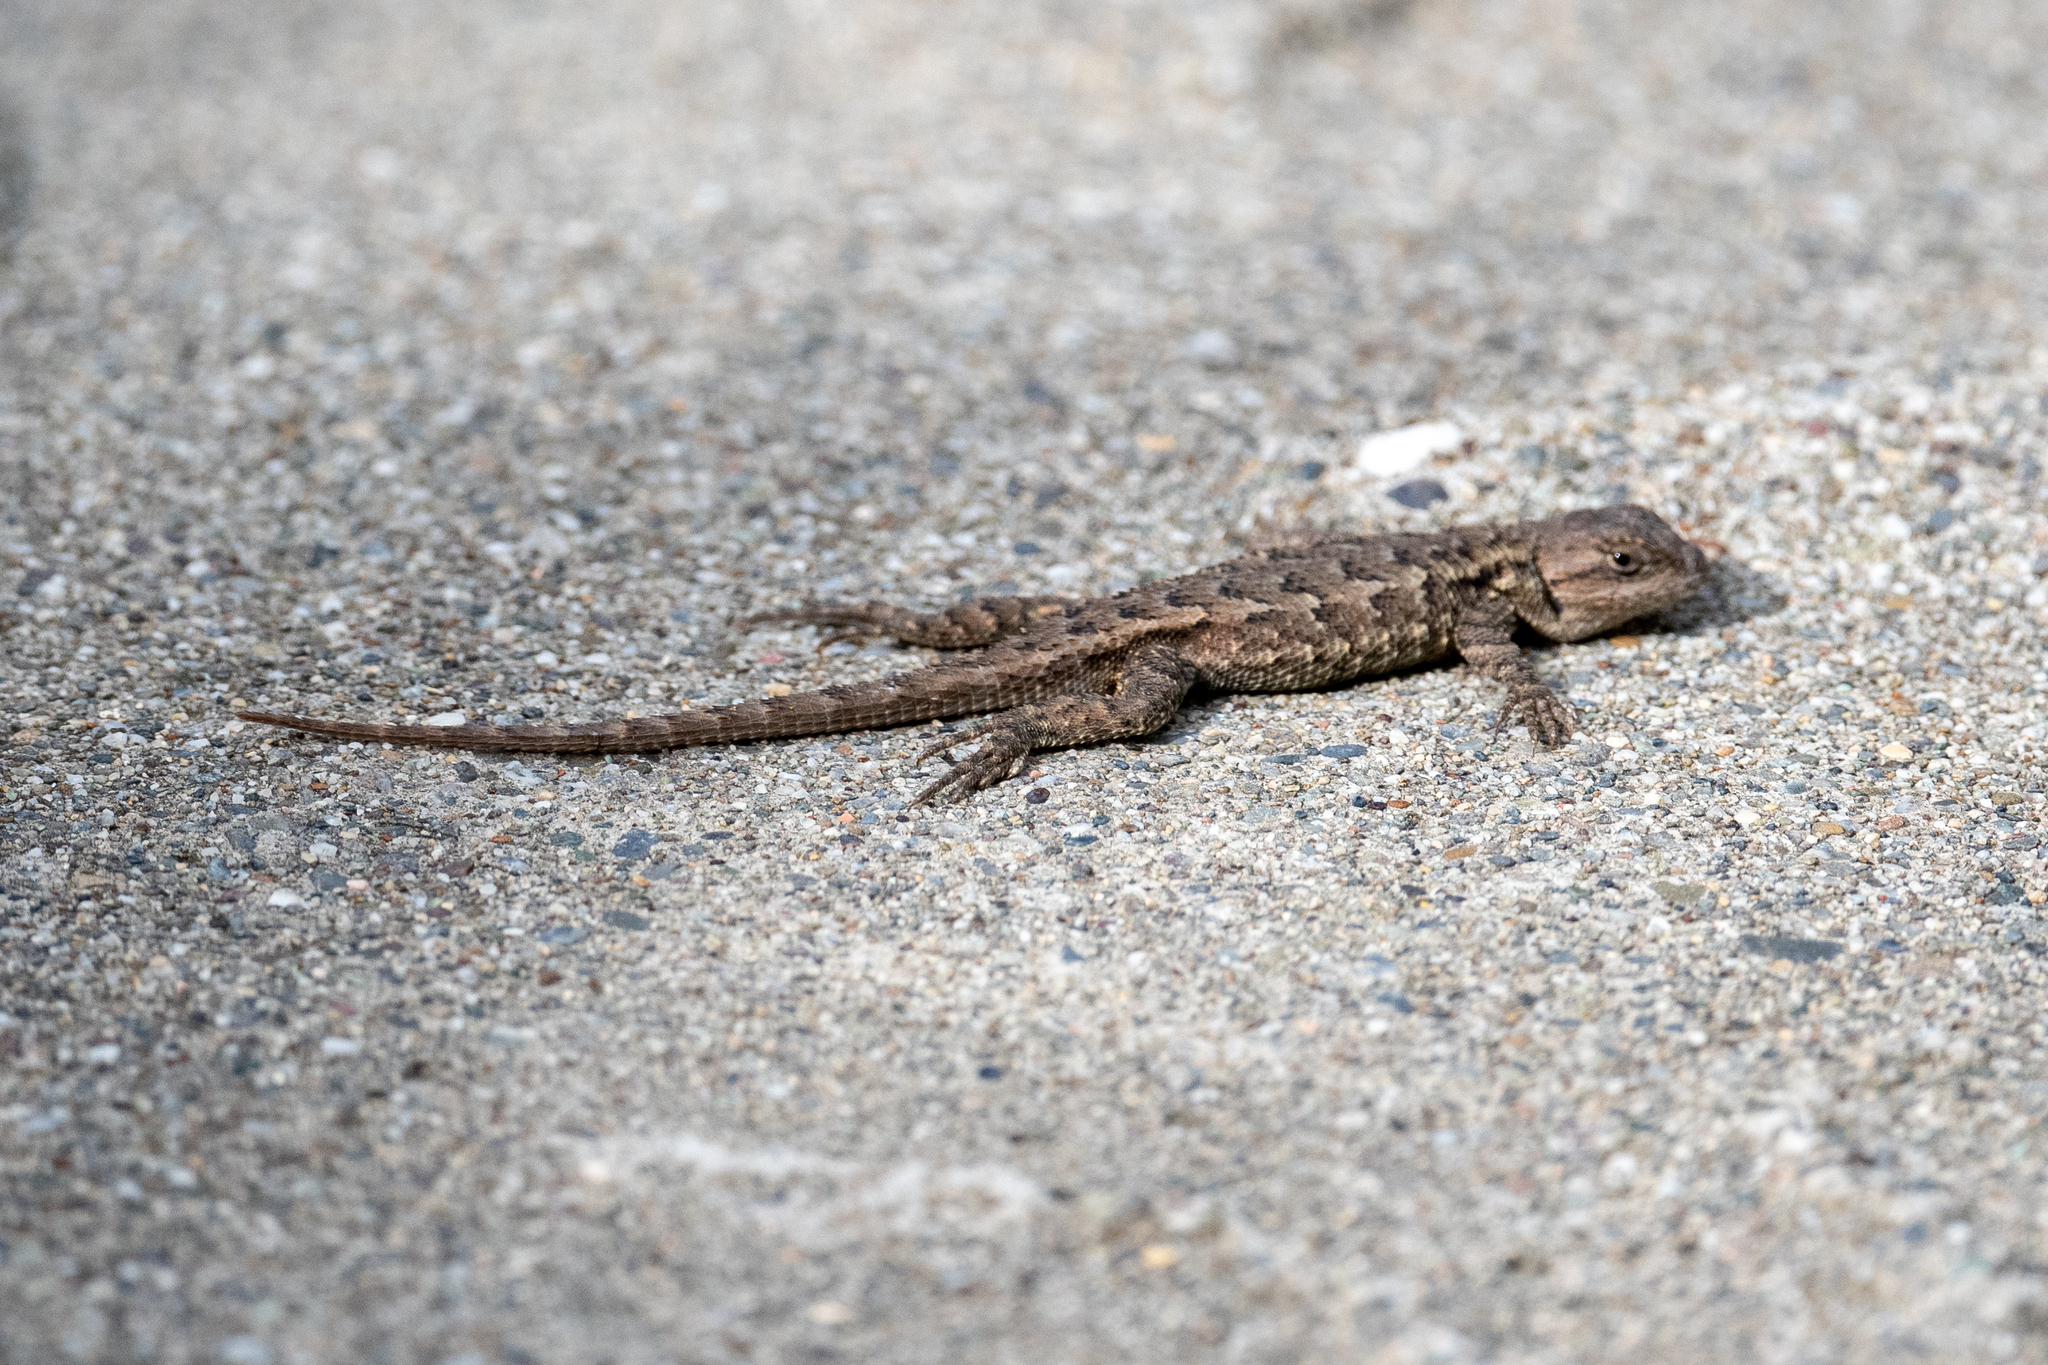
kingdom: Animalia
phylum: Chordata
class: Squamata
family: Phrynosomatidae
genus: Sceloporus
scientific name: Sceloporus occidentalis
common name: Western fence lizard
